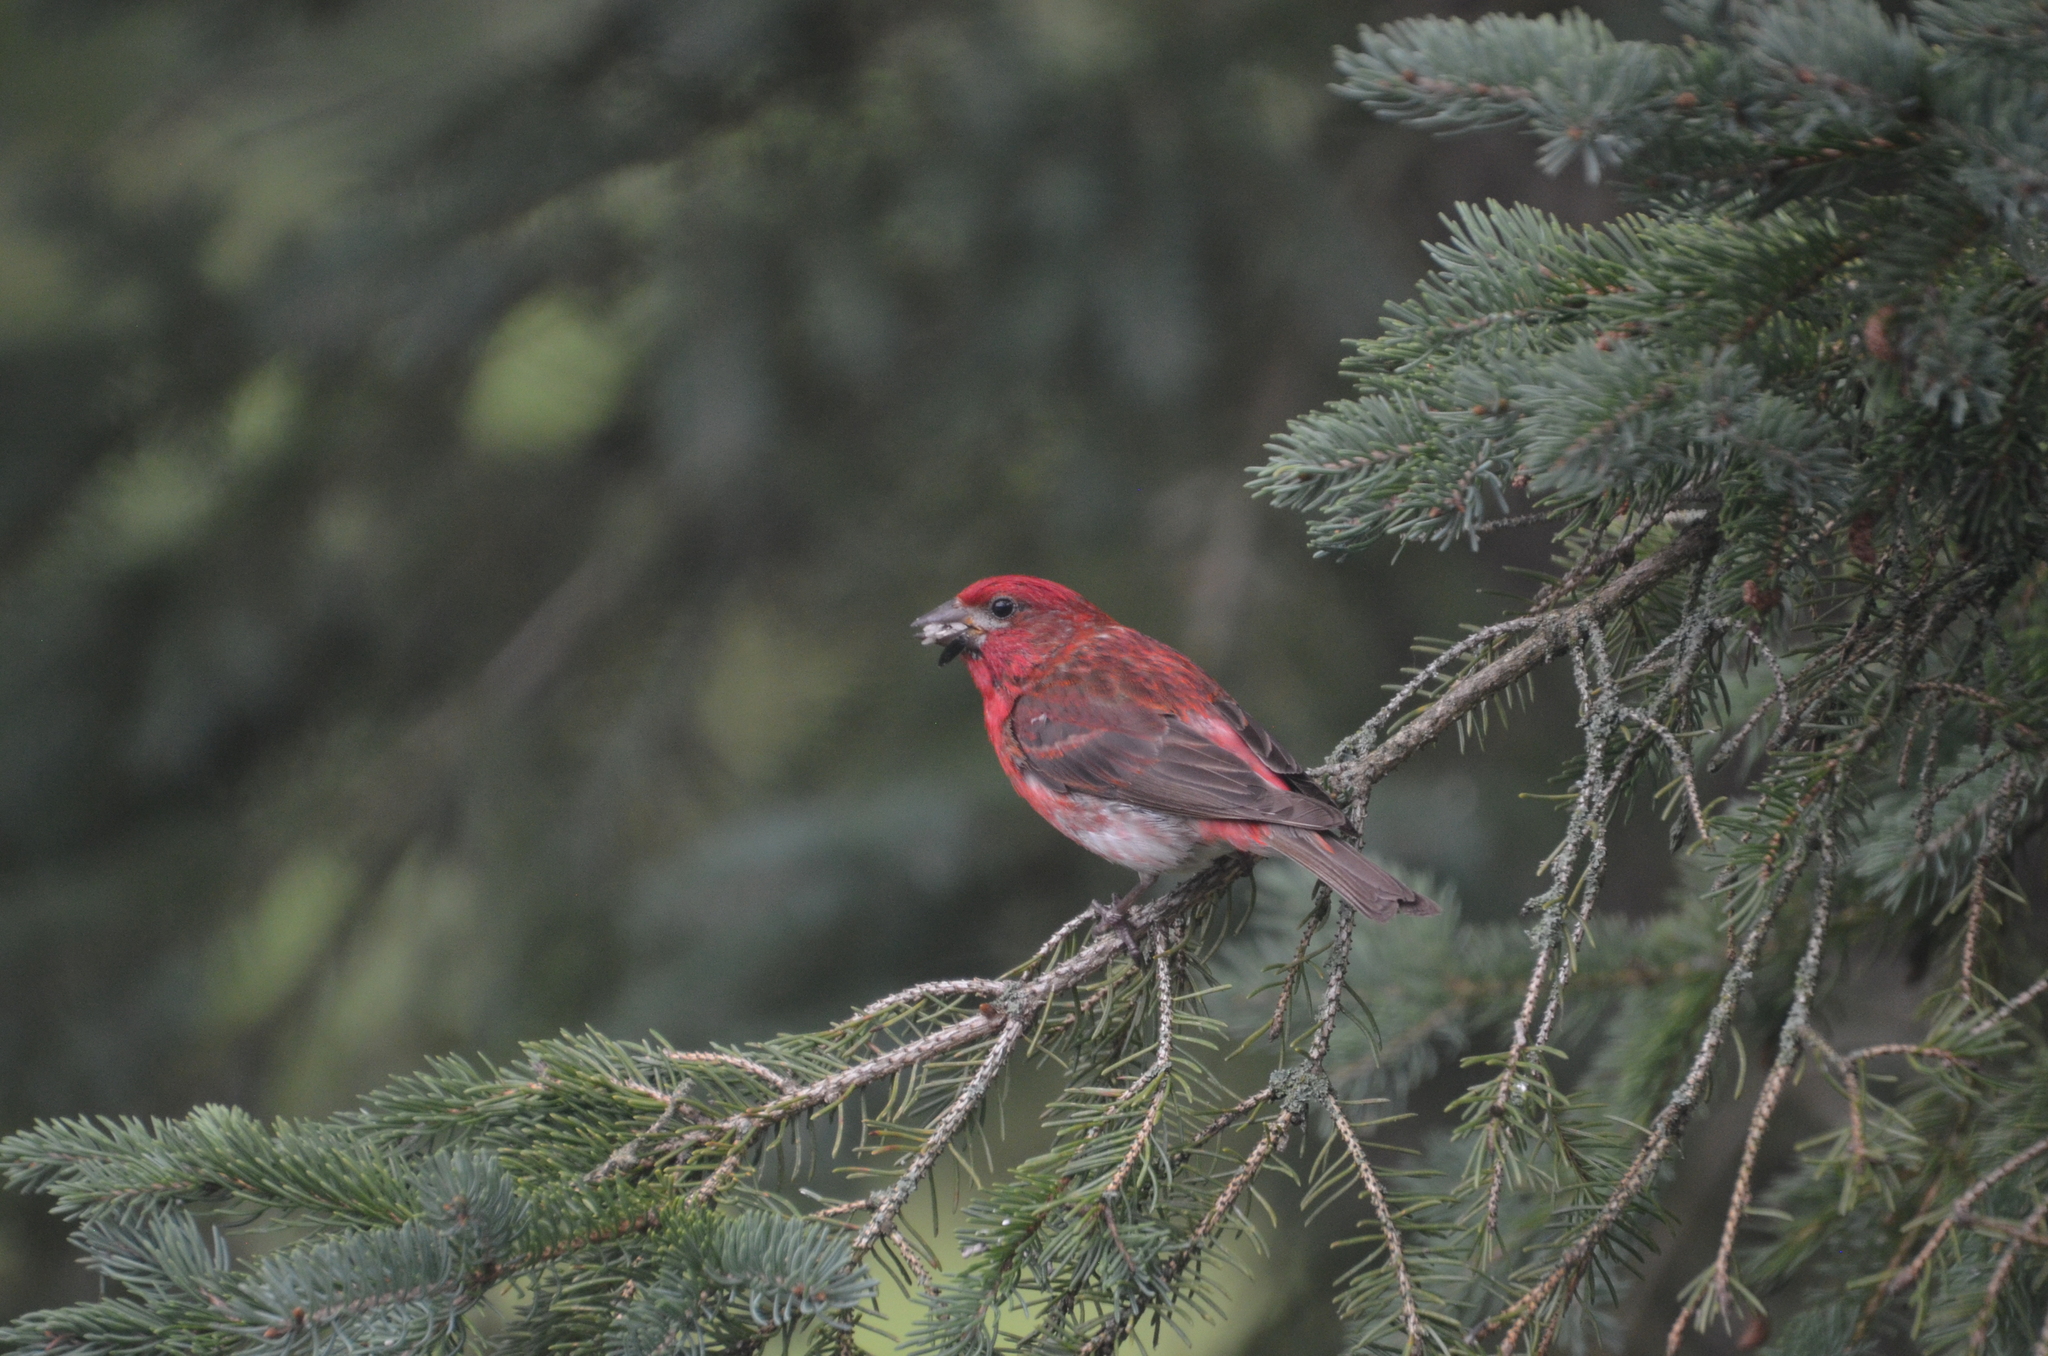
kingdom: Animalia
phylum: Chordata
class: Aves
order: Passeriformes
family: Fringillidae
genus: Haemorhous
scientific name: Haemorhous purpureus
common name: Purple finch
